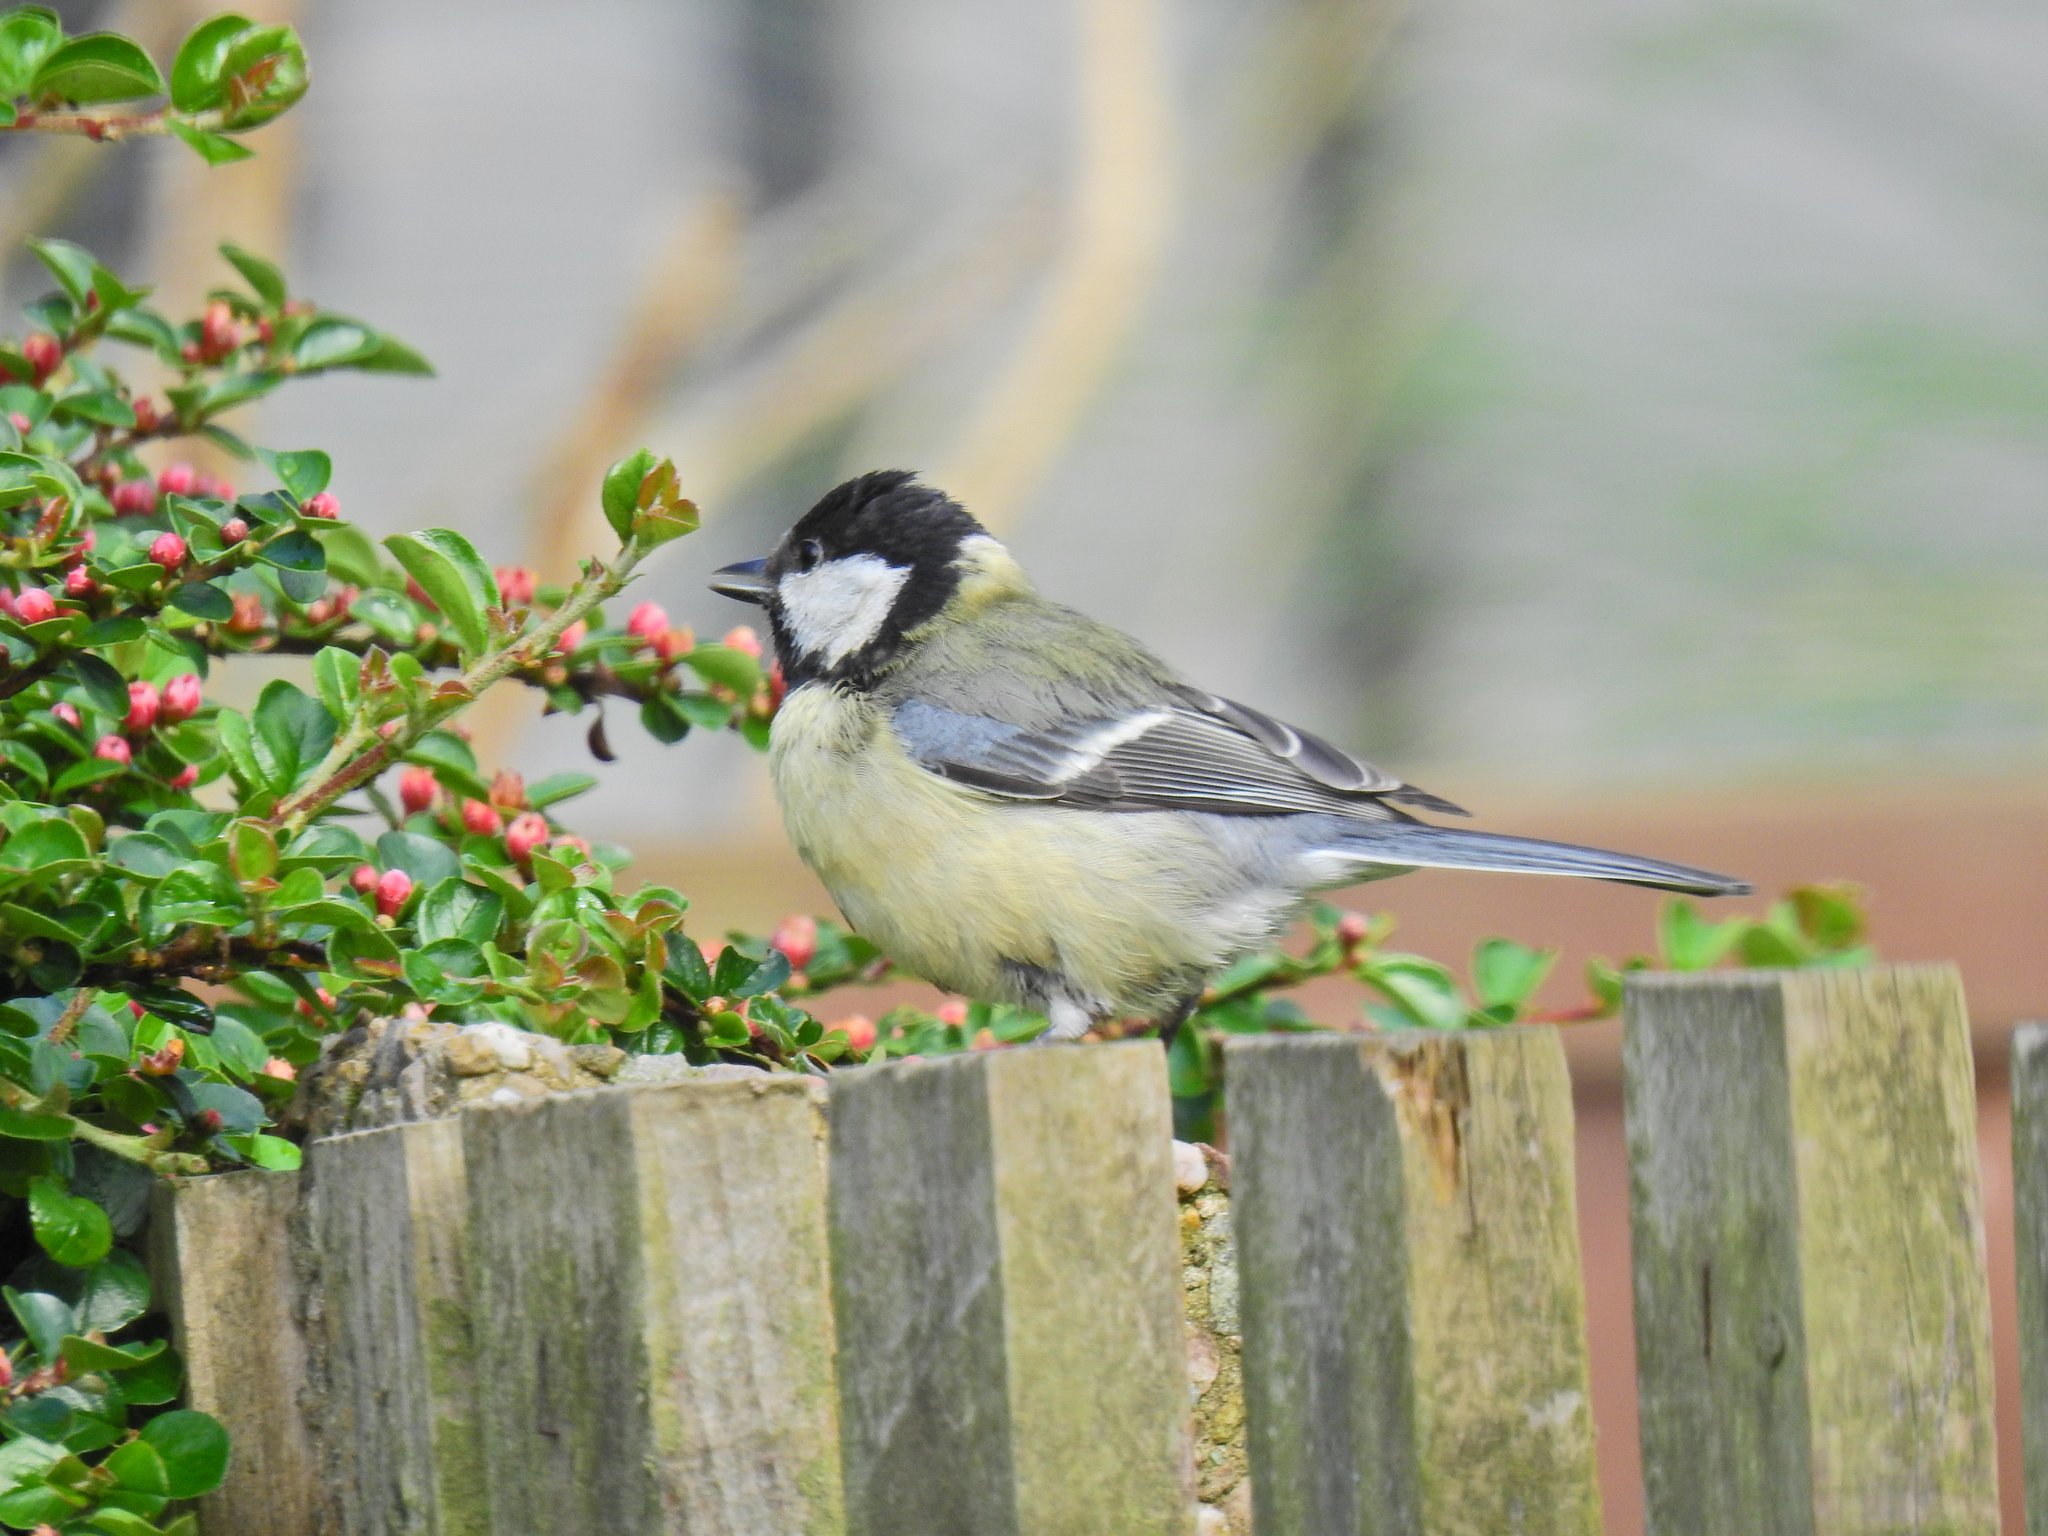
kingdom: Animalia
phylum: Chordata
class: Aves
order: Passeriformes
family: Paridae
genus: Parus
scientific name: Parus major
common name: Great tit
